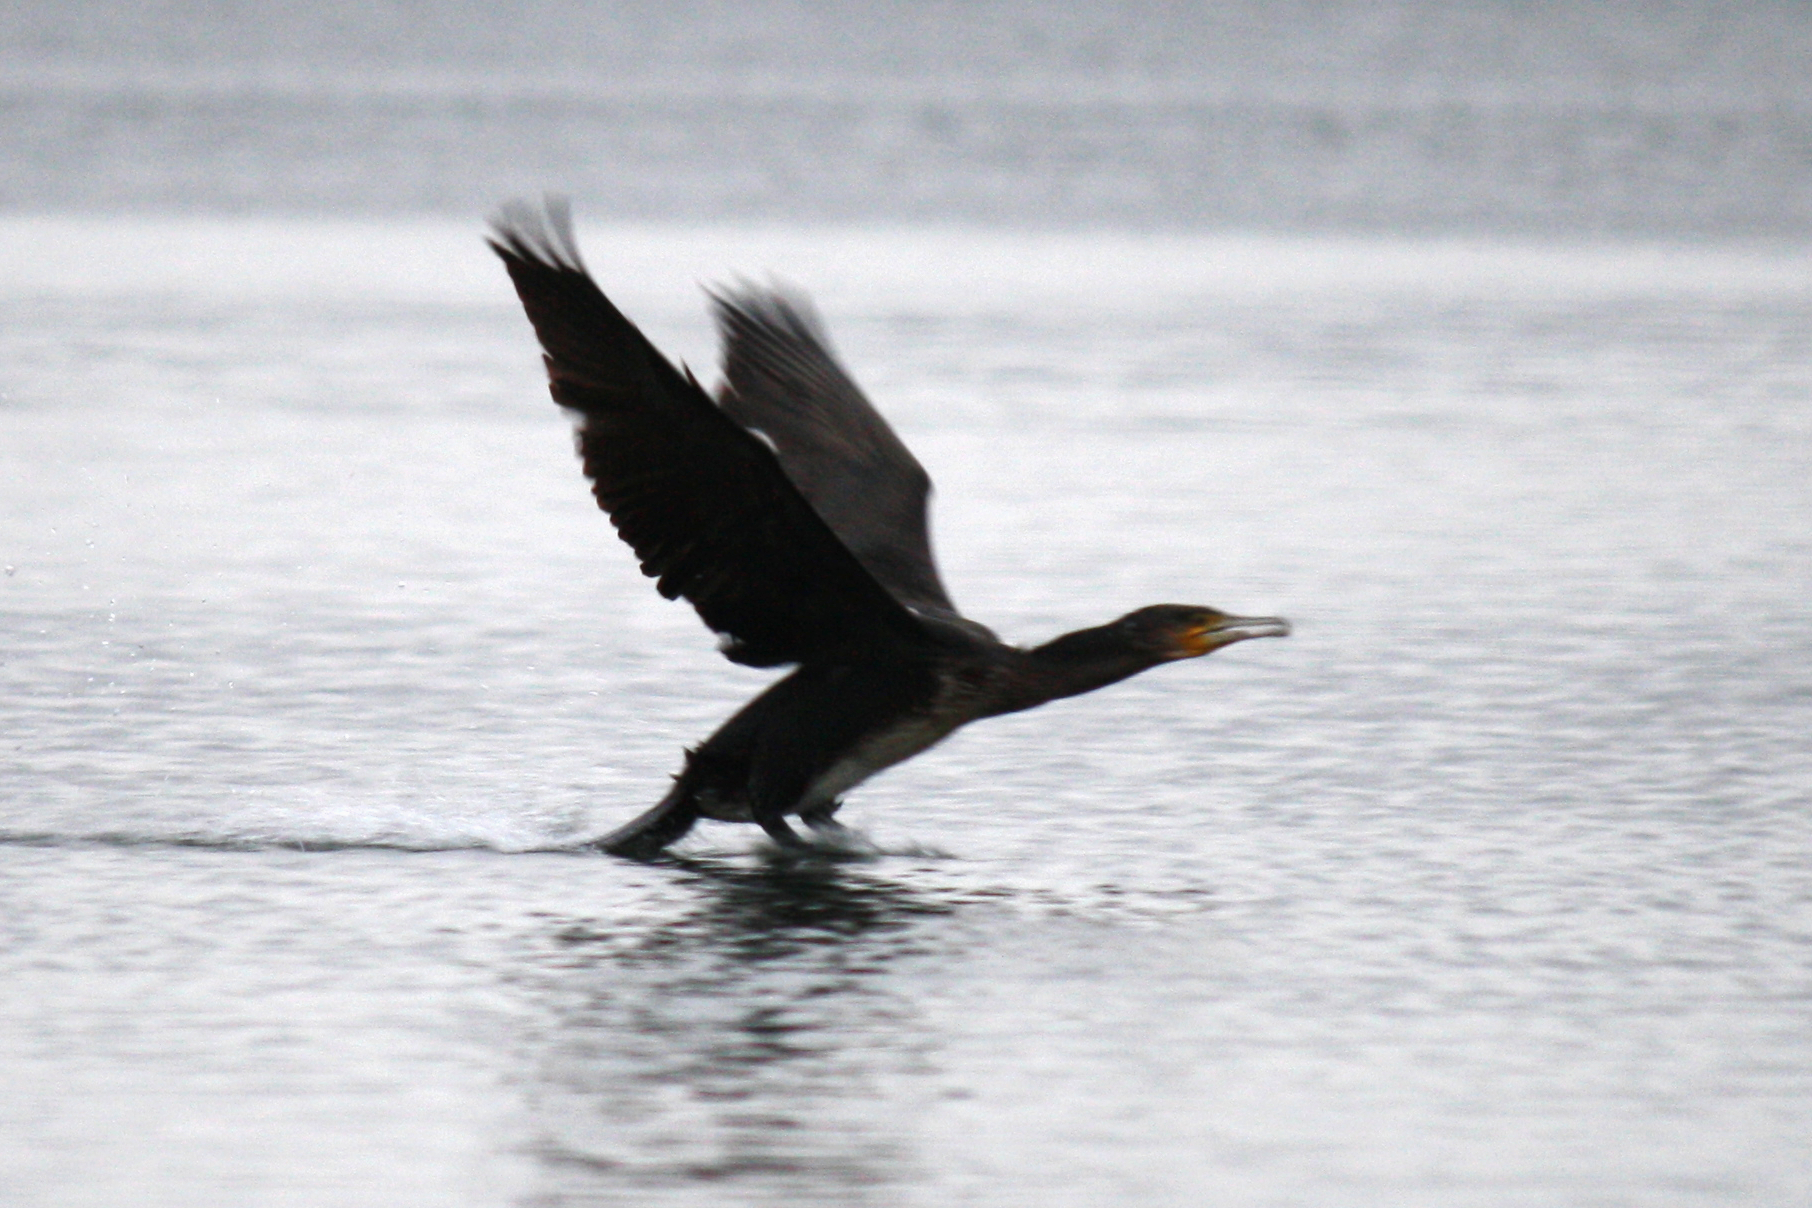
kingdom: Animalia
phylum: Chordata
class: Aves
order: Suliformes
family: Phalacrocoracidae
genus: Phalacrocorax
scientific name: Phalacrocorax carbo
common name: Great cormorant
